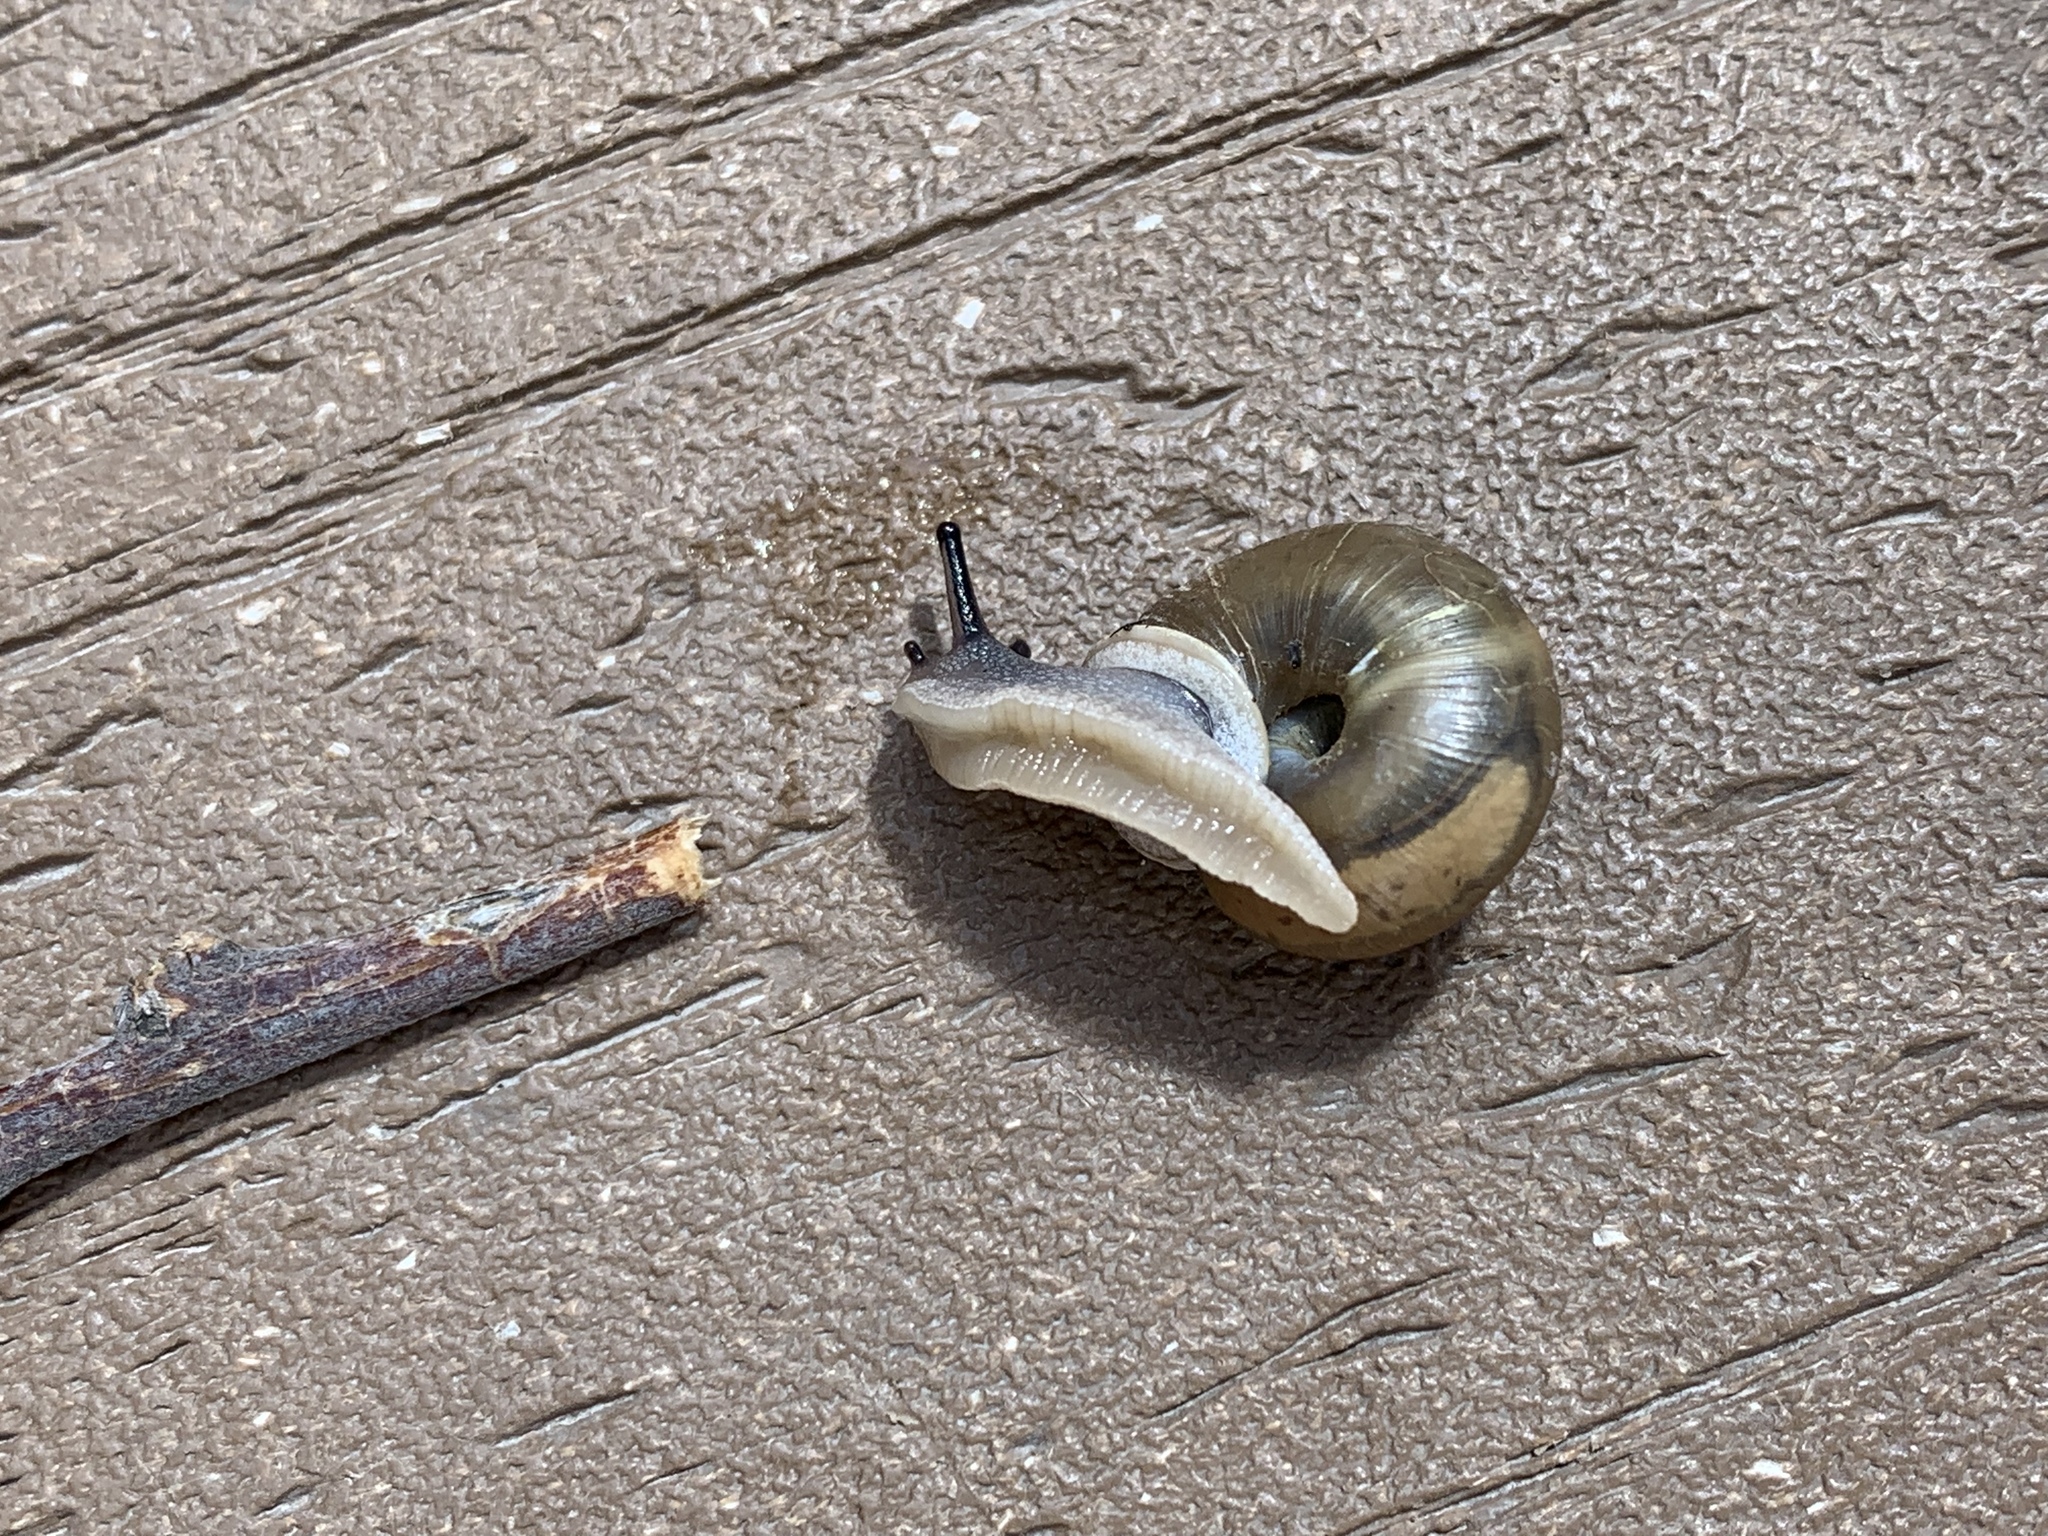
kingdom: Animalia
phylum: Mollusca
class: Gastropoda
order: Stylommatophora
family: Polygyridae
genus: Ashmunella
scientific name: Ashmunella rhyssa
